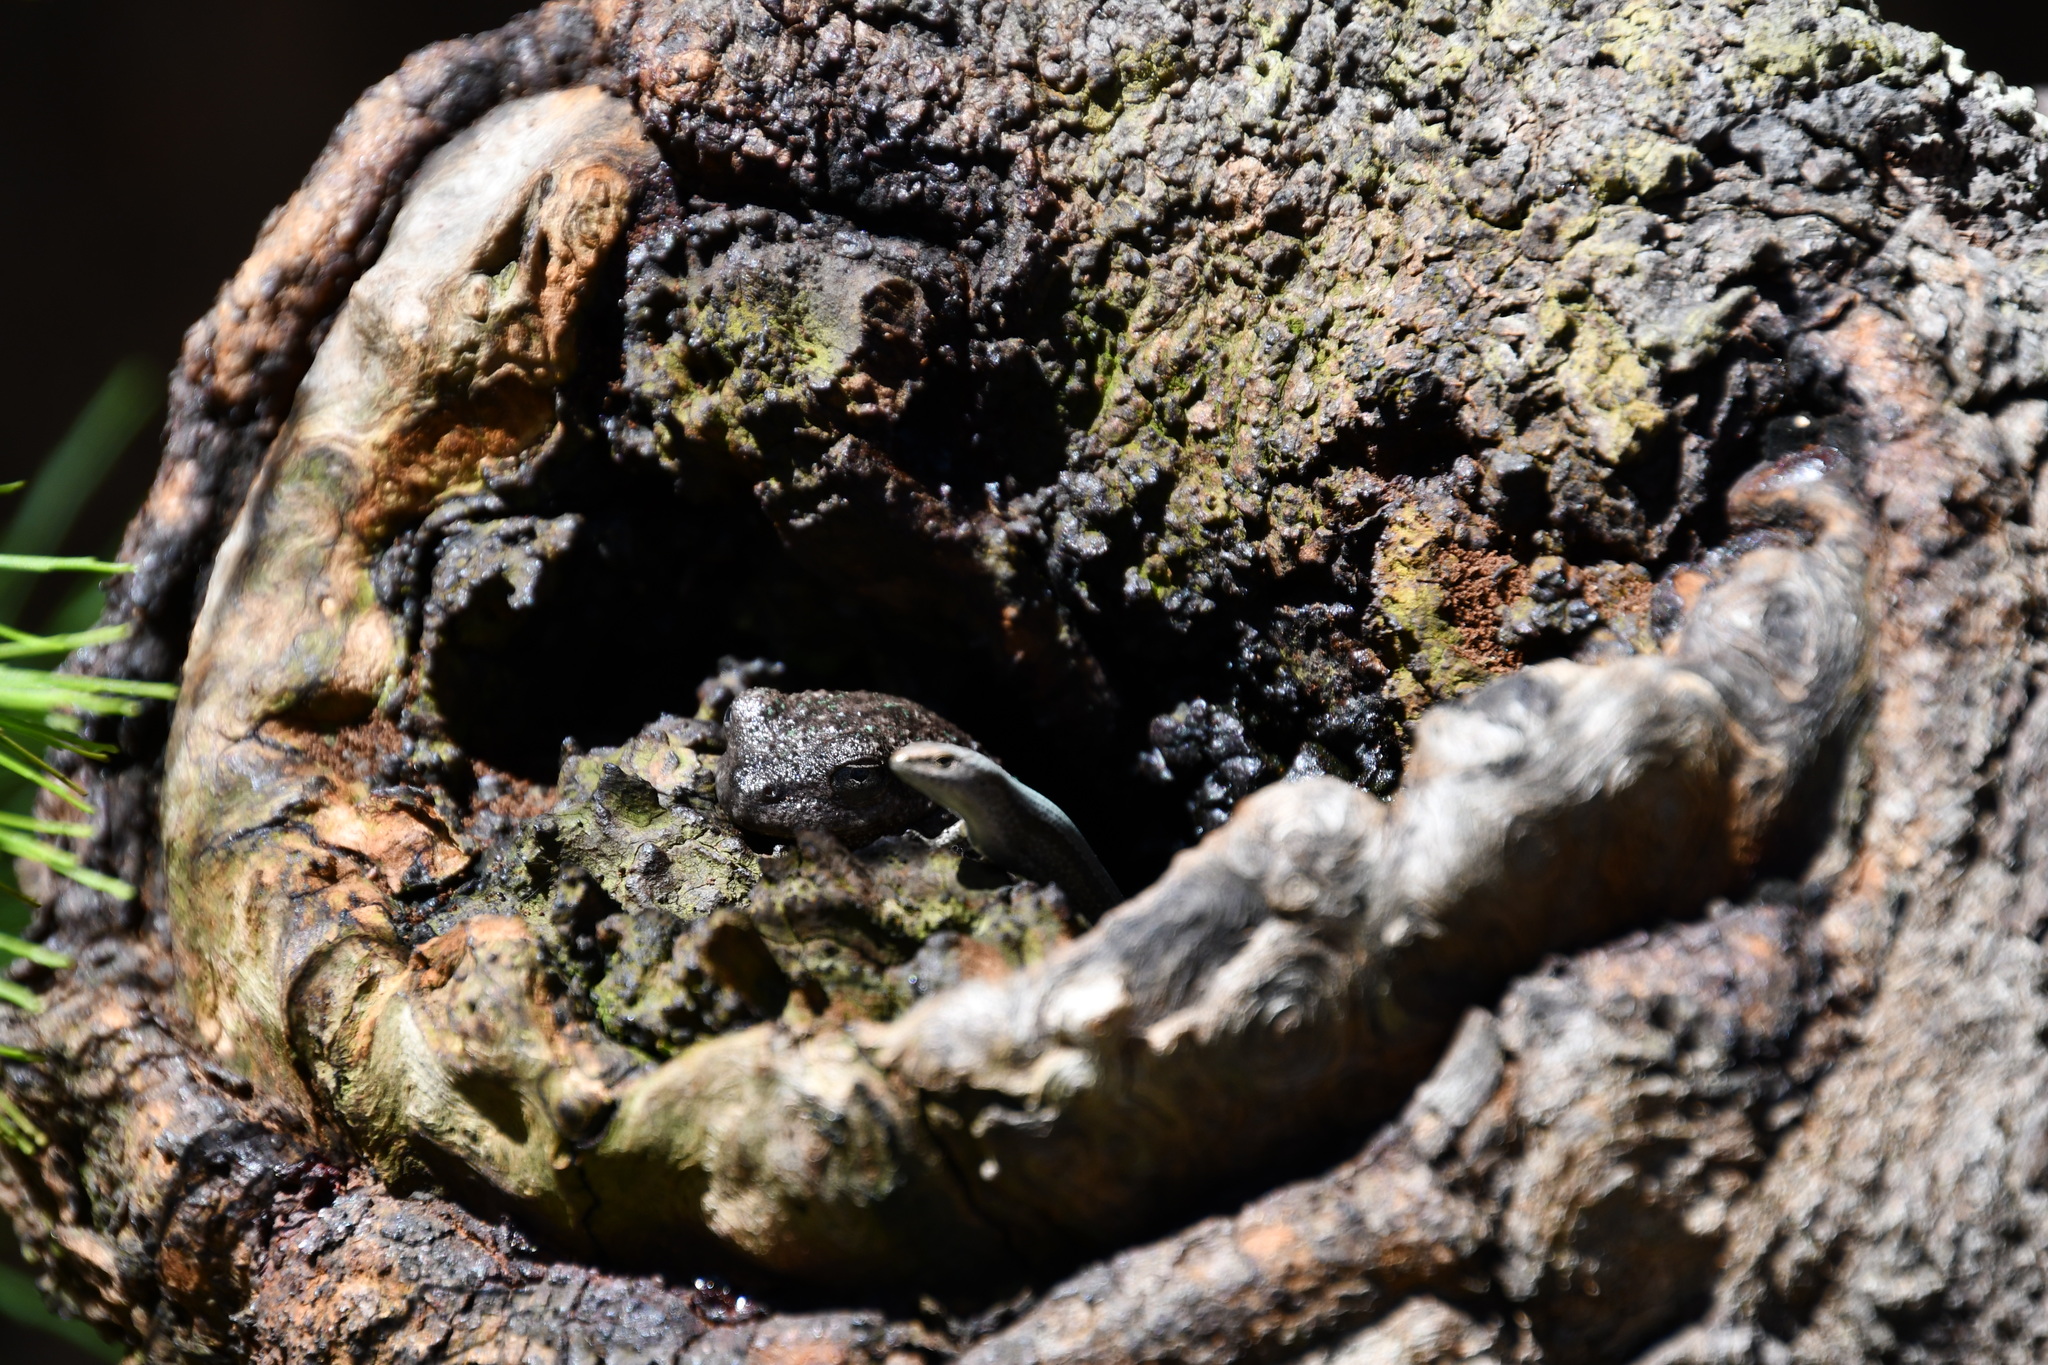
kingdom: Animalia
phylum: Chordata
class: Amphibia
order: Anura
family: Pelodryadidae
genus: Litoria
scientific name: Litoria peronii
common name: Emerald spotted treefrog
